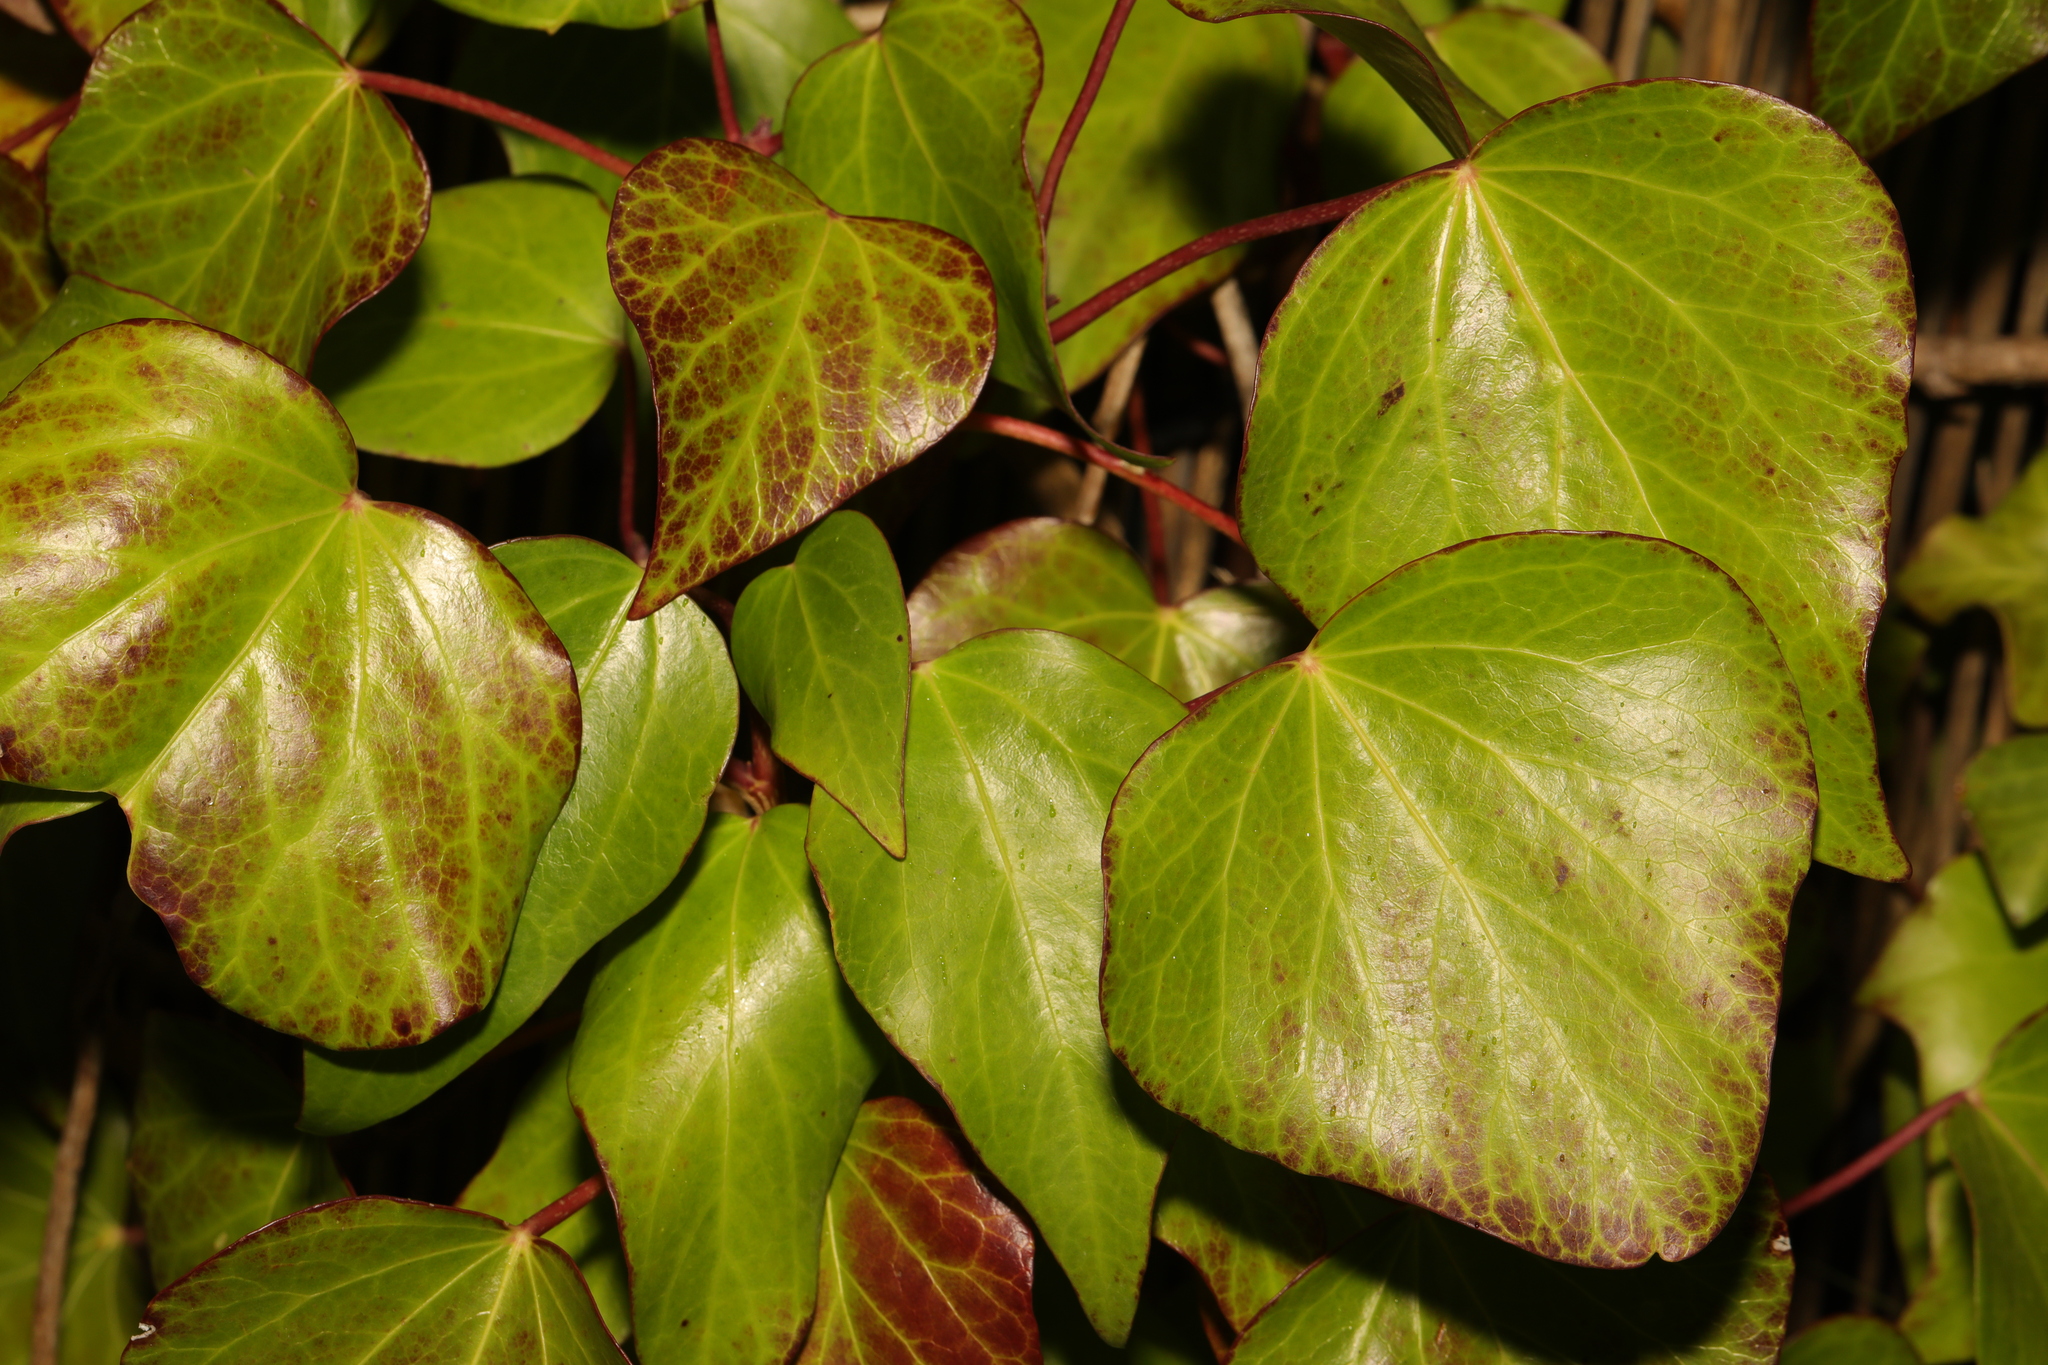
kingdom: Plantae
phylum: Tracheophyta
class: Magnoliopsida
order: Apiales
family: Araliaceae
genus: Hedera
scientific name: Hedera colchica
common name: Persian ivy
